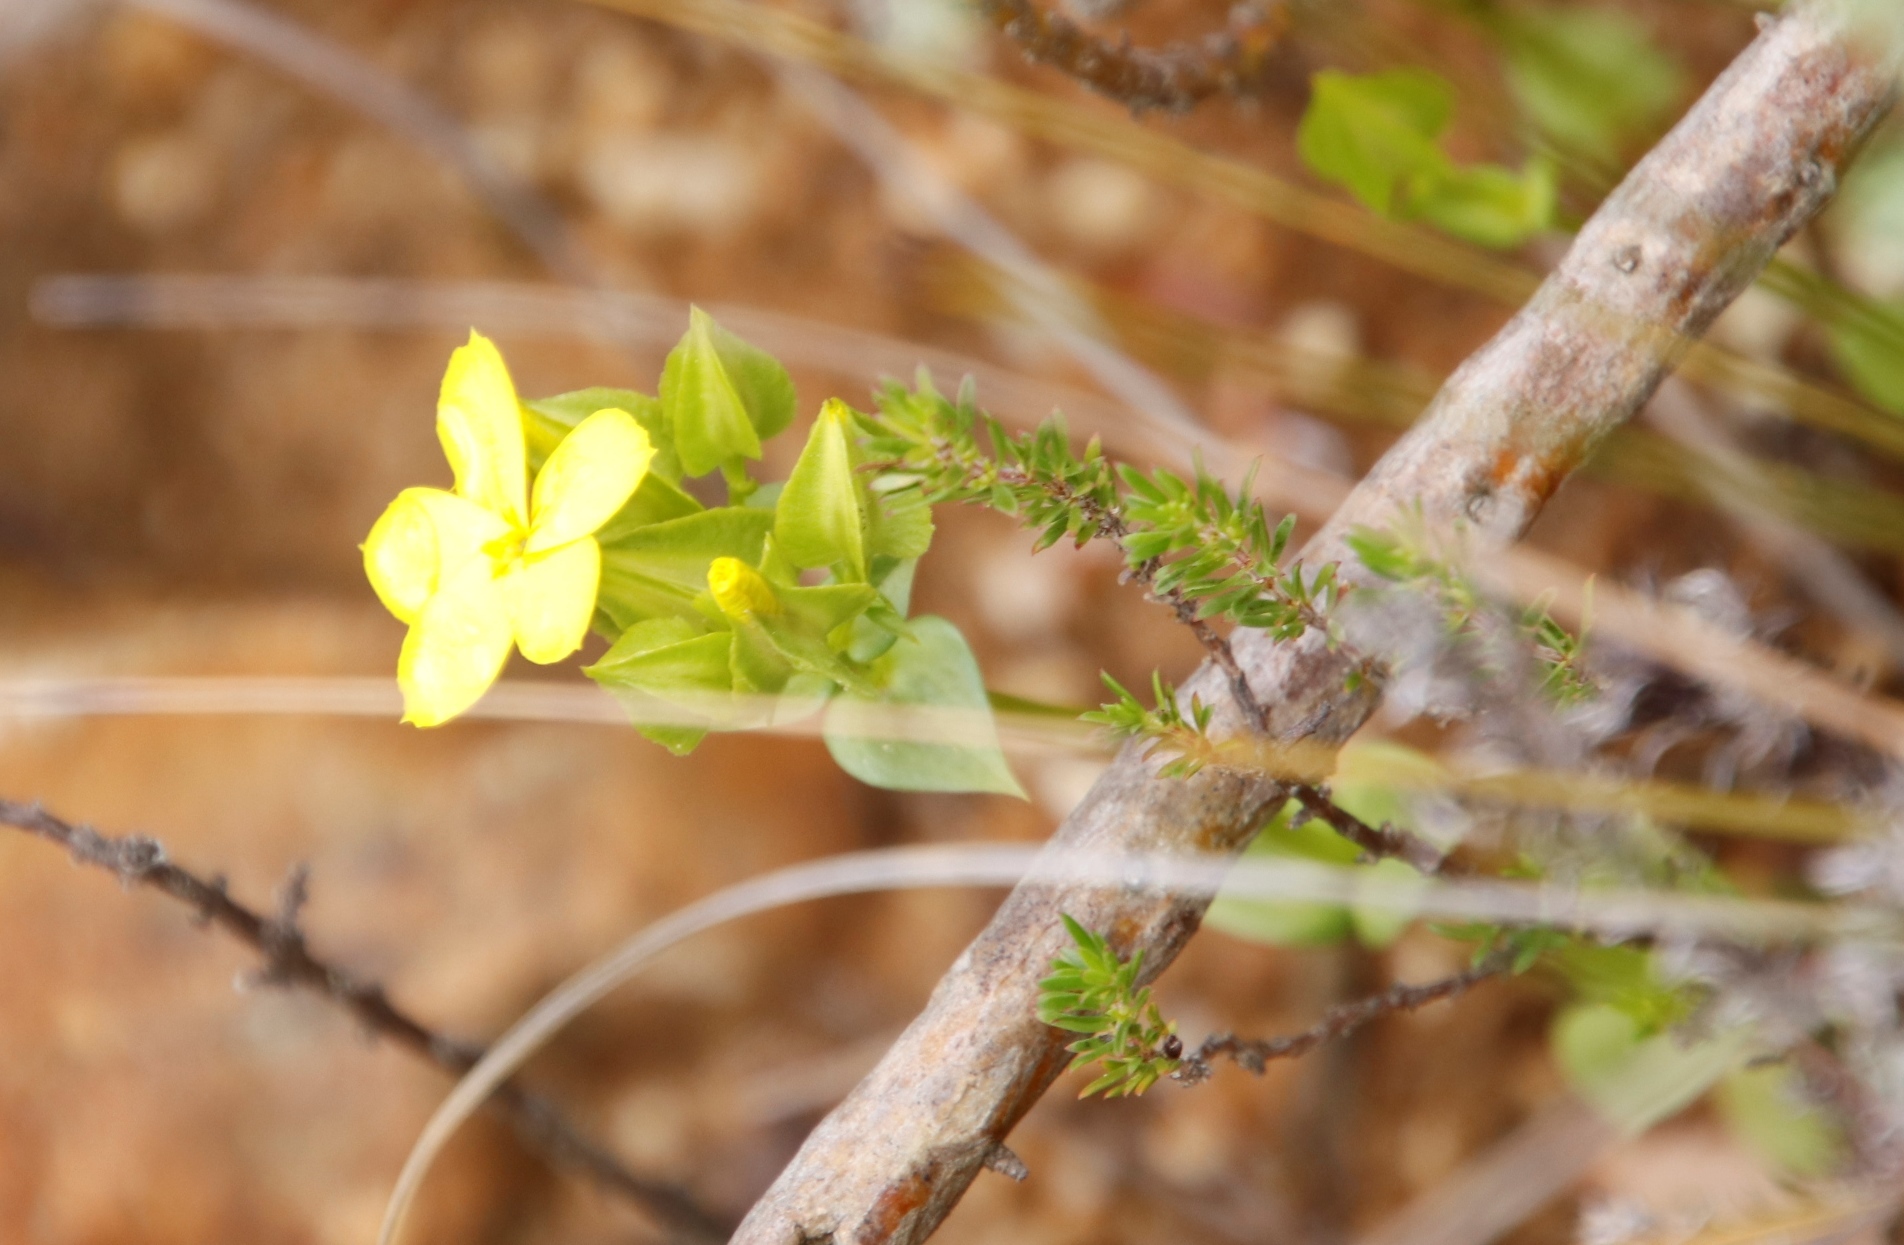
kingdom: Plantae
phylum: Tracheophyta
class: Magnoliopsida
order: Gentianales
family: Gentianaceae
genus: Sebaea
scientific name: Sebaea exacoides
